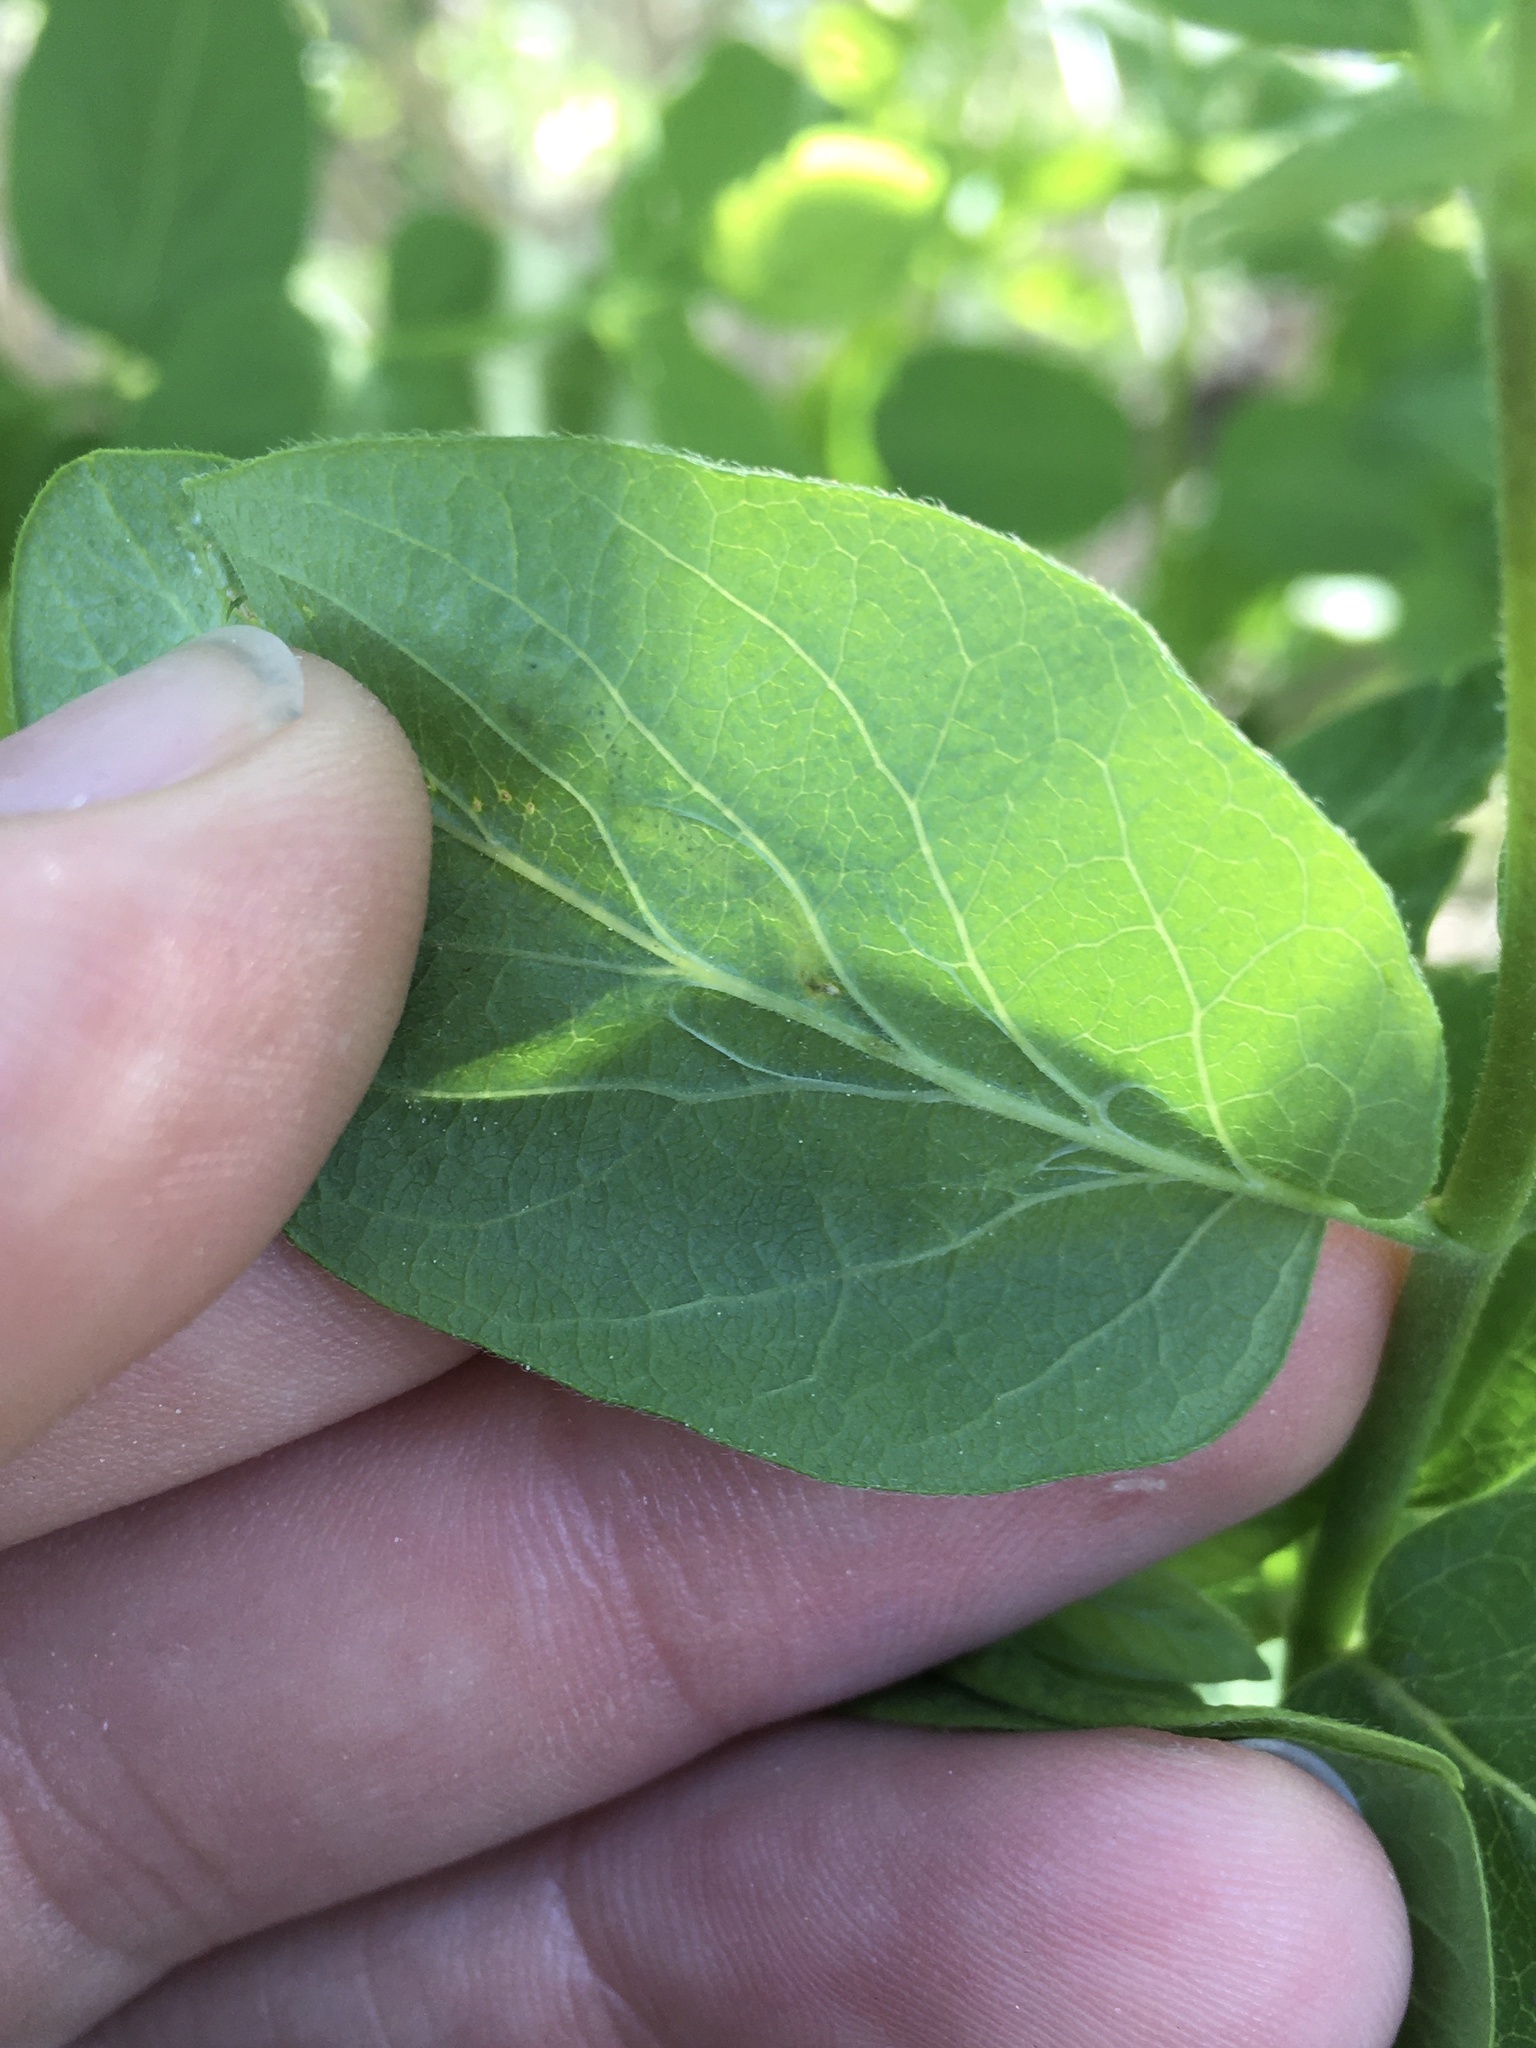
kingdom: Animalia
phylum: Arthropoda
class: Insecta
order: Diptera
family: Agromyzidae
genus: Aulagromyza
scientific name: Aulagromyza cornigera
